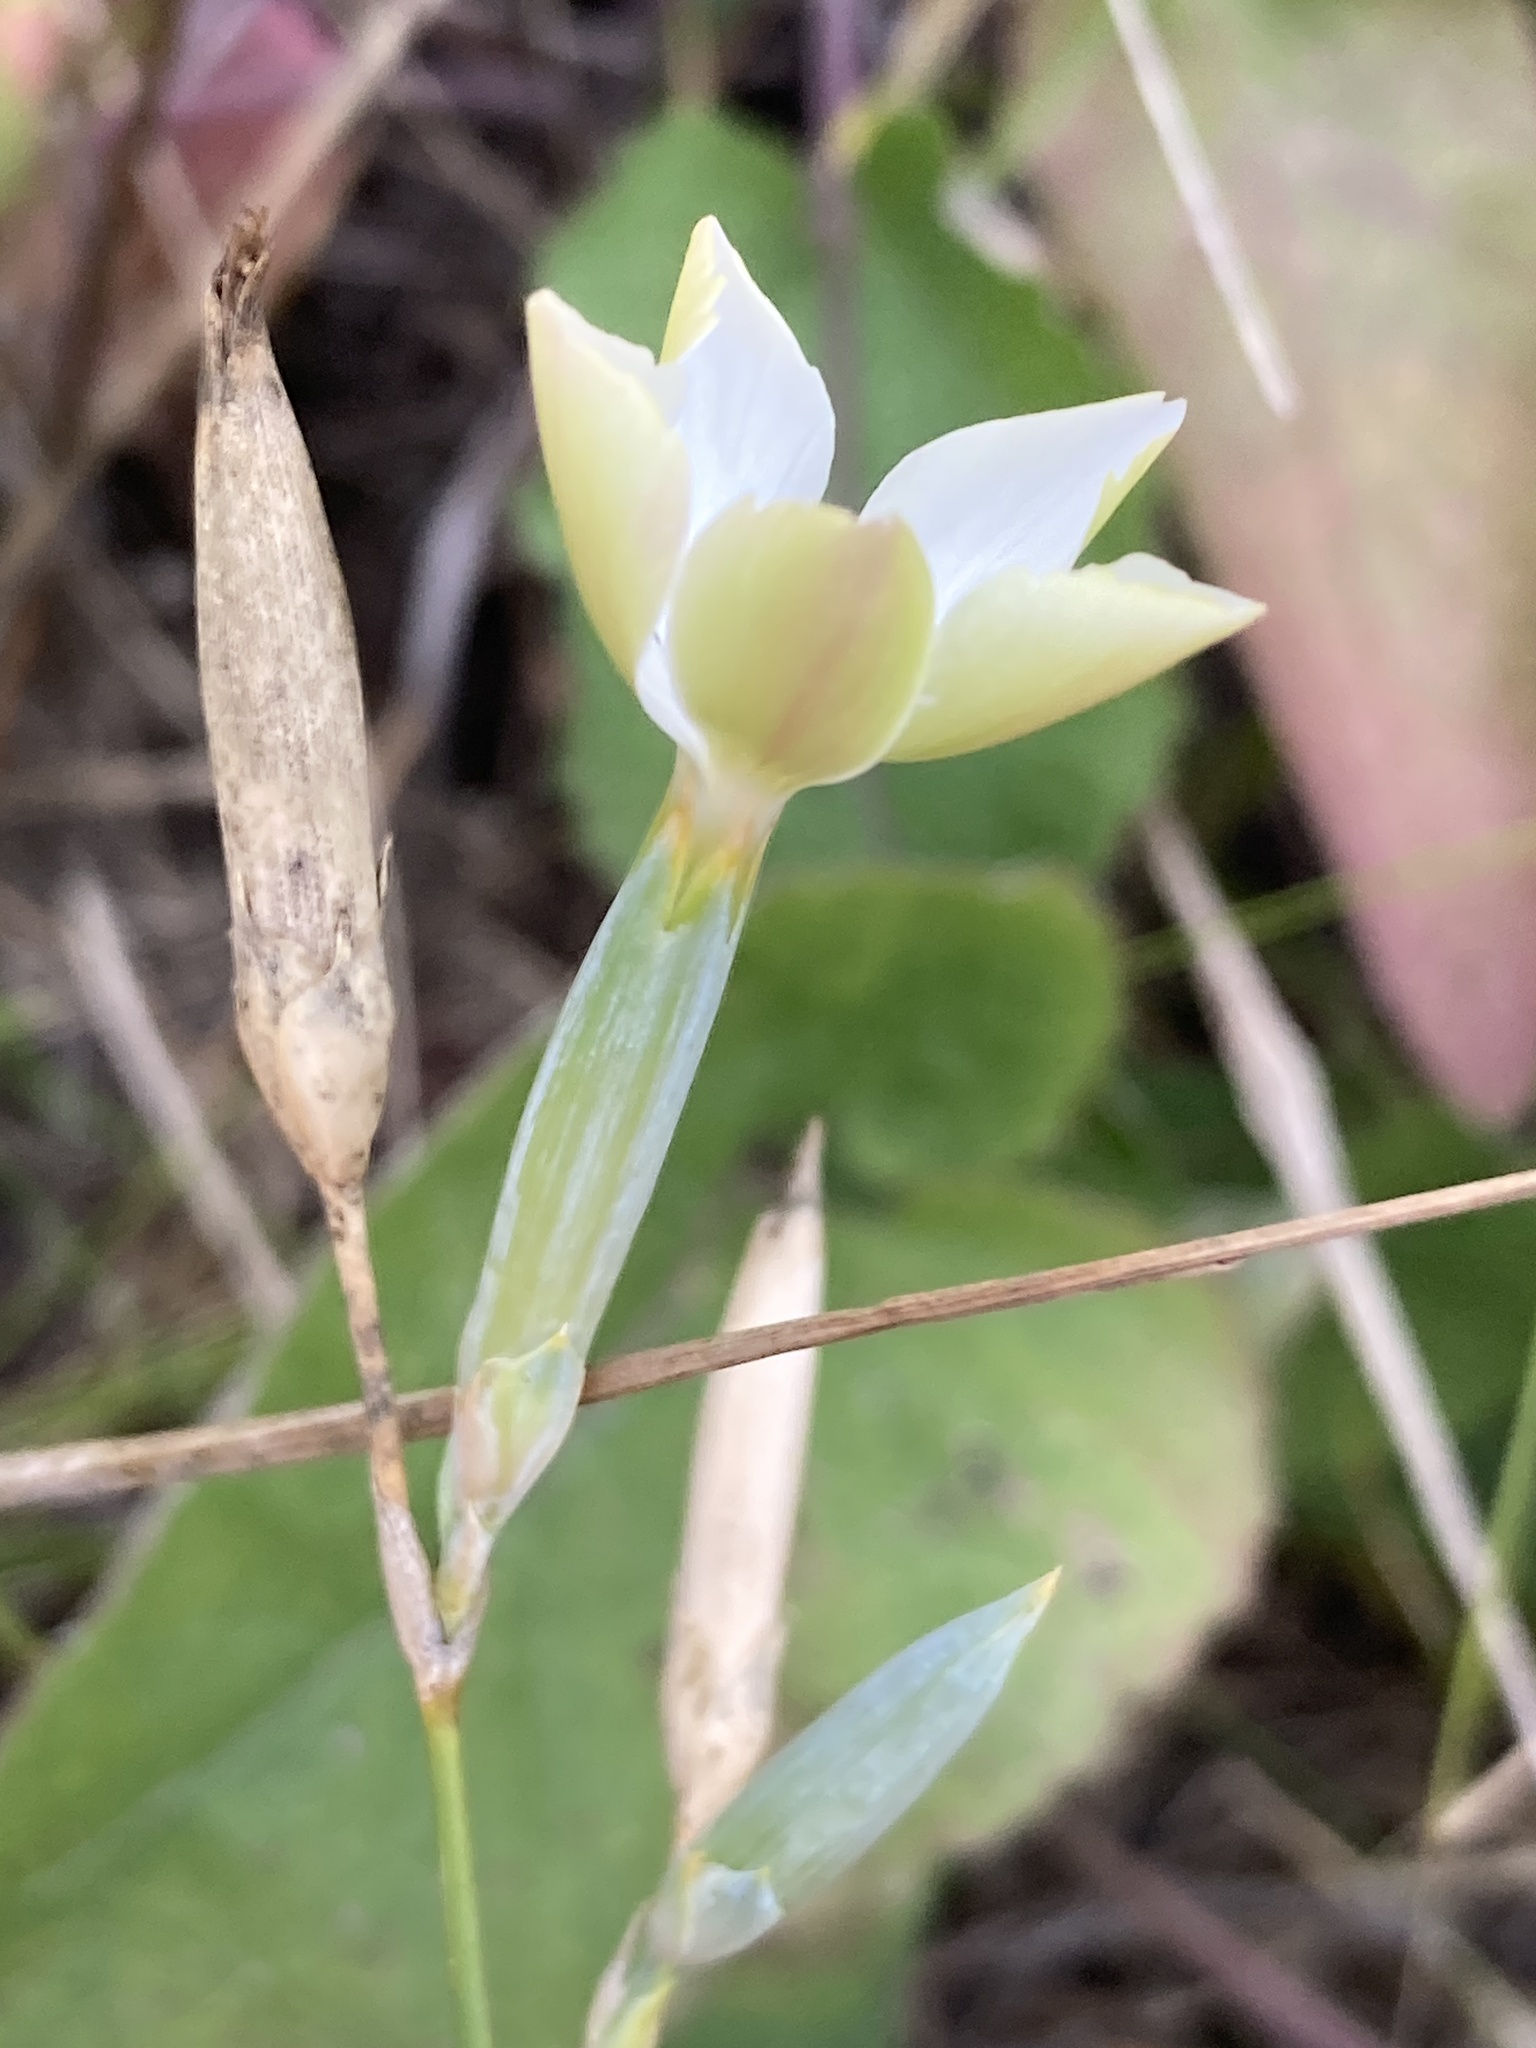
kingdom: Plantae
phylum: Tracheophyta
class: Magnoliopsida
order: Caryophyllales
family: Caryophyllaceae
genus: Dianthus
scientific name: Dianthus lanceolatus
